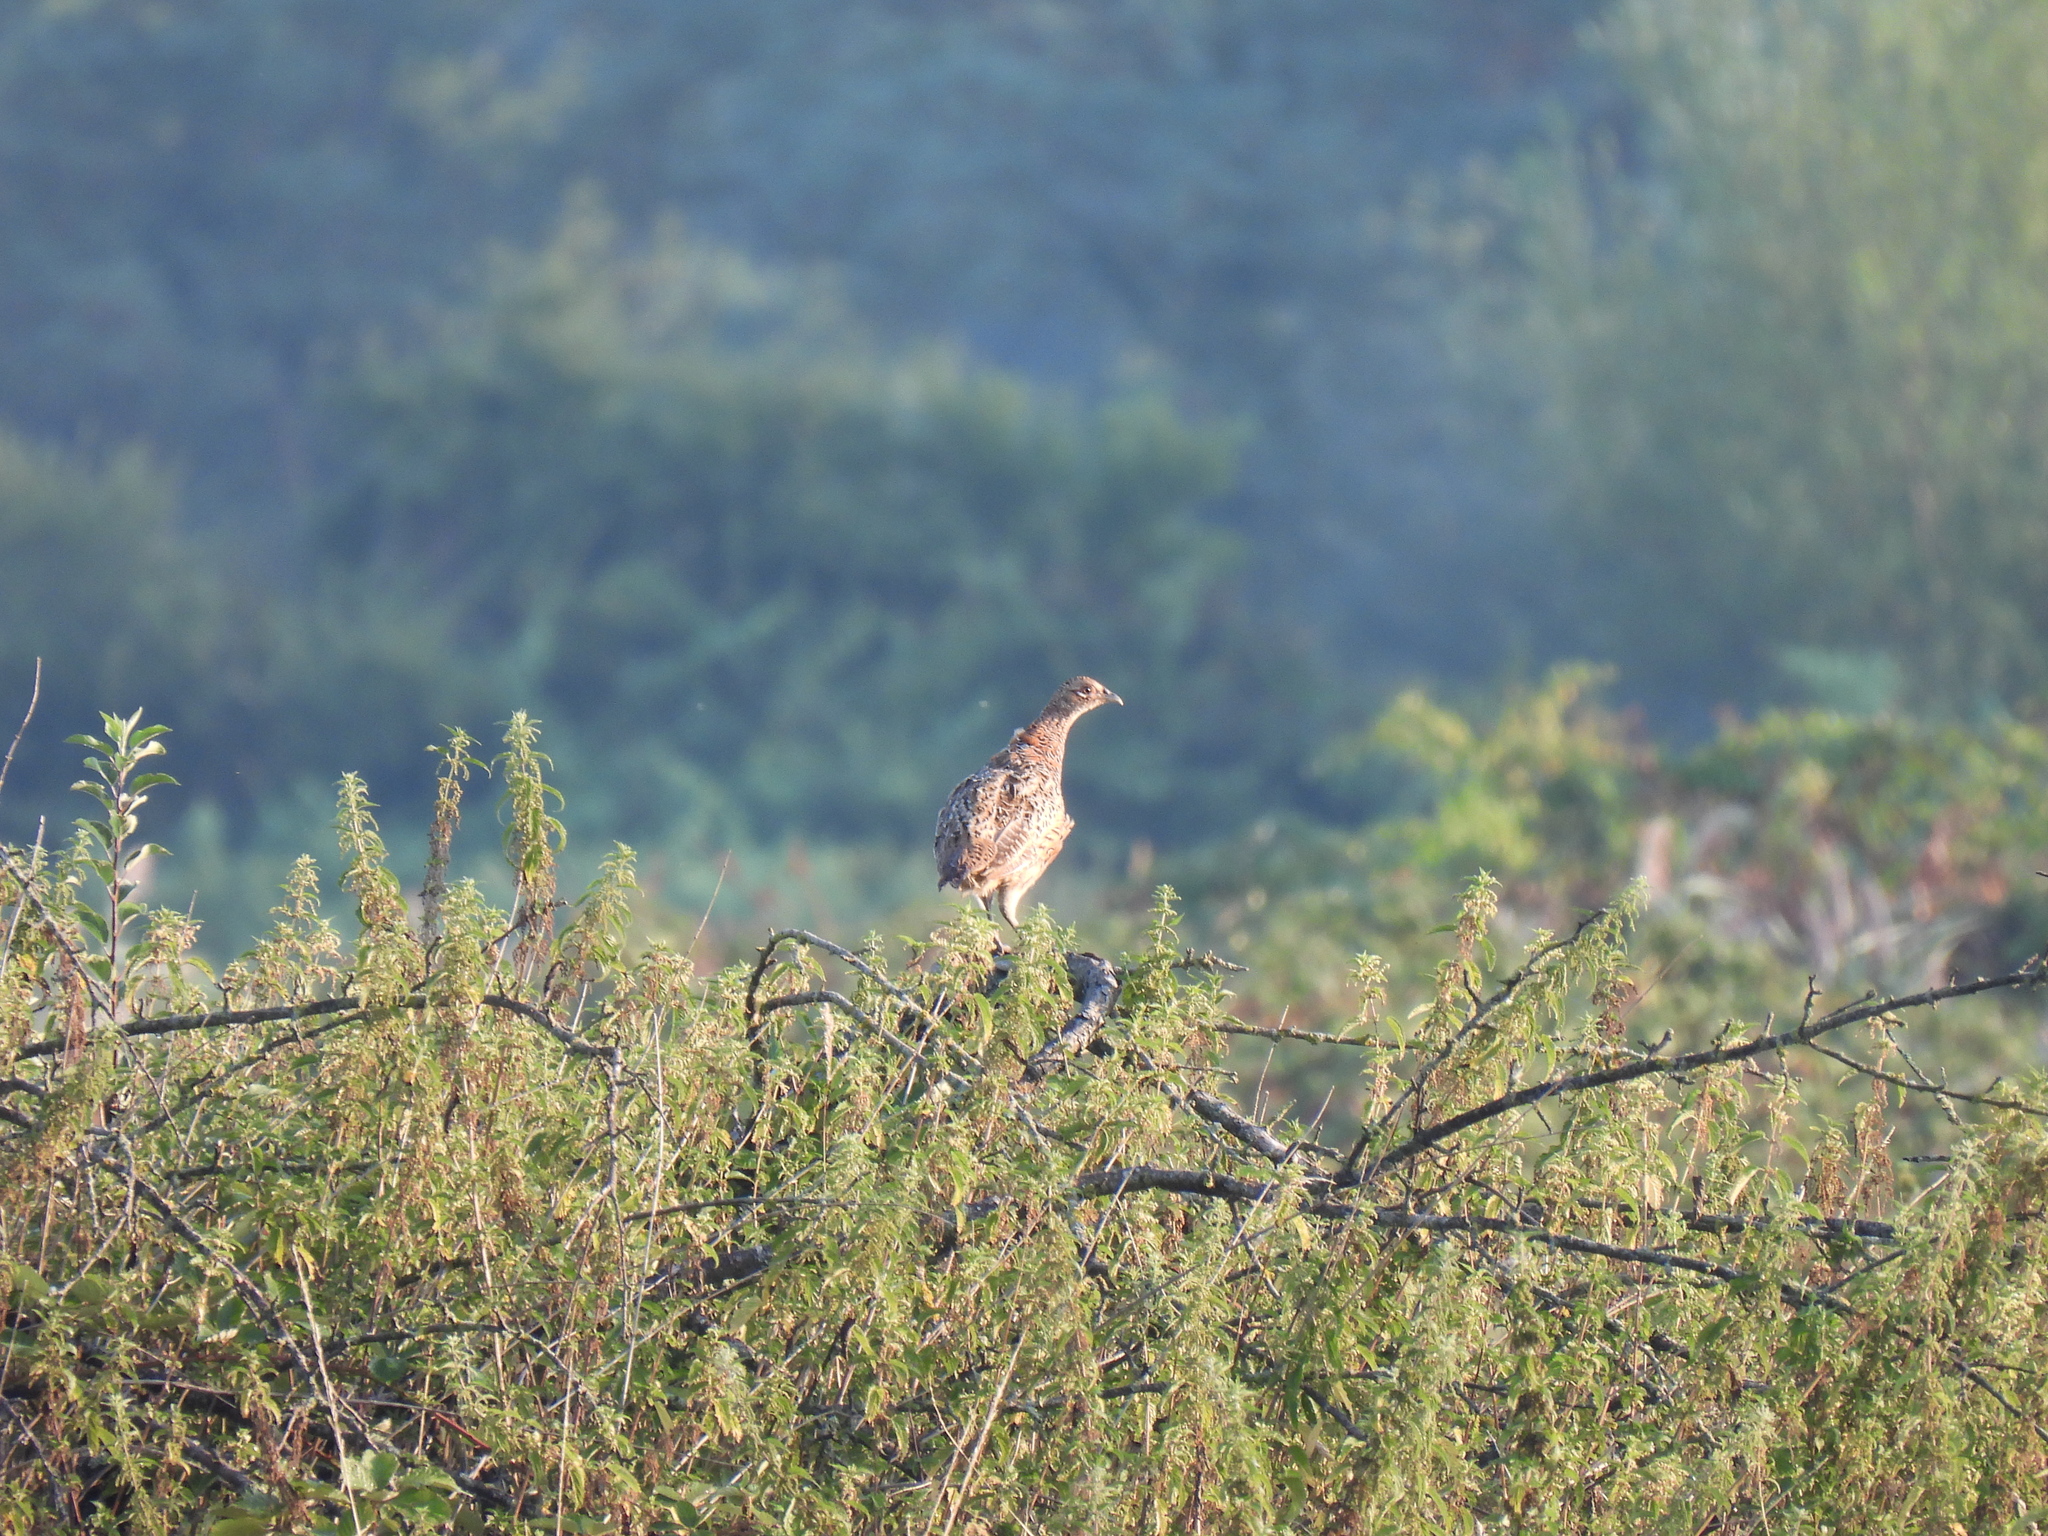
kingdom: Animalia
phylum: Chordata
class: Aves
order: Galliformes
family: Phasianidae
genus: Phasianus
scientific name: Phasianus colchicus
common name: Common pheasant
